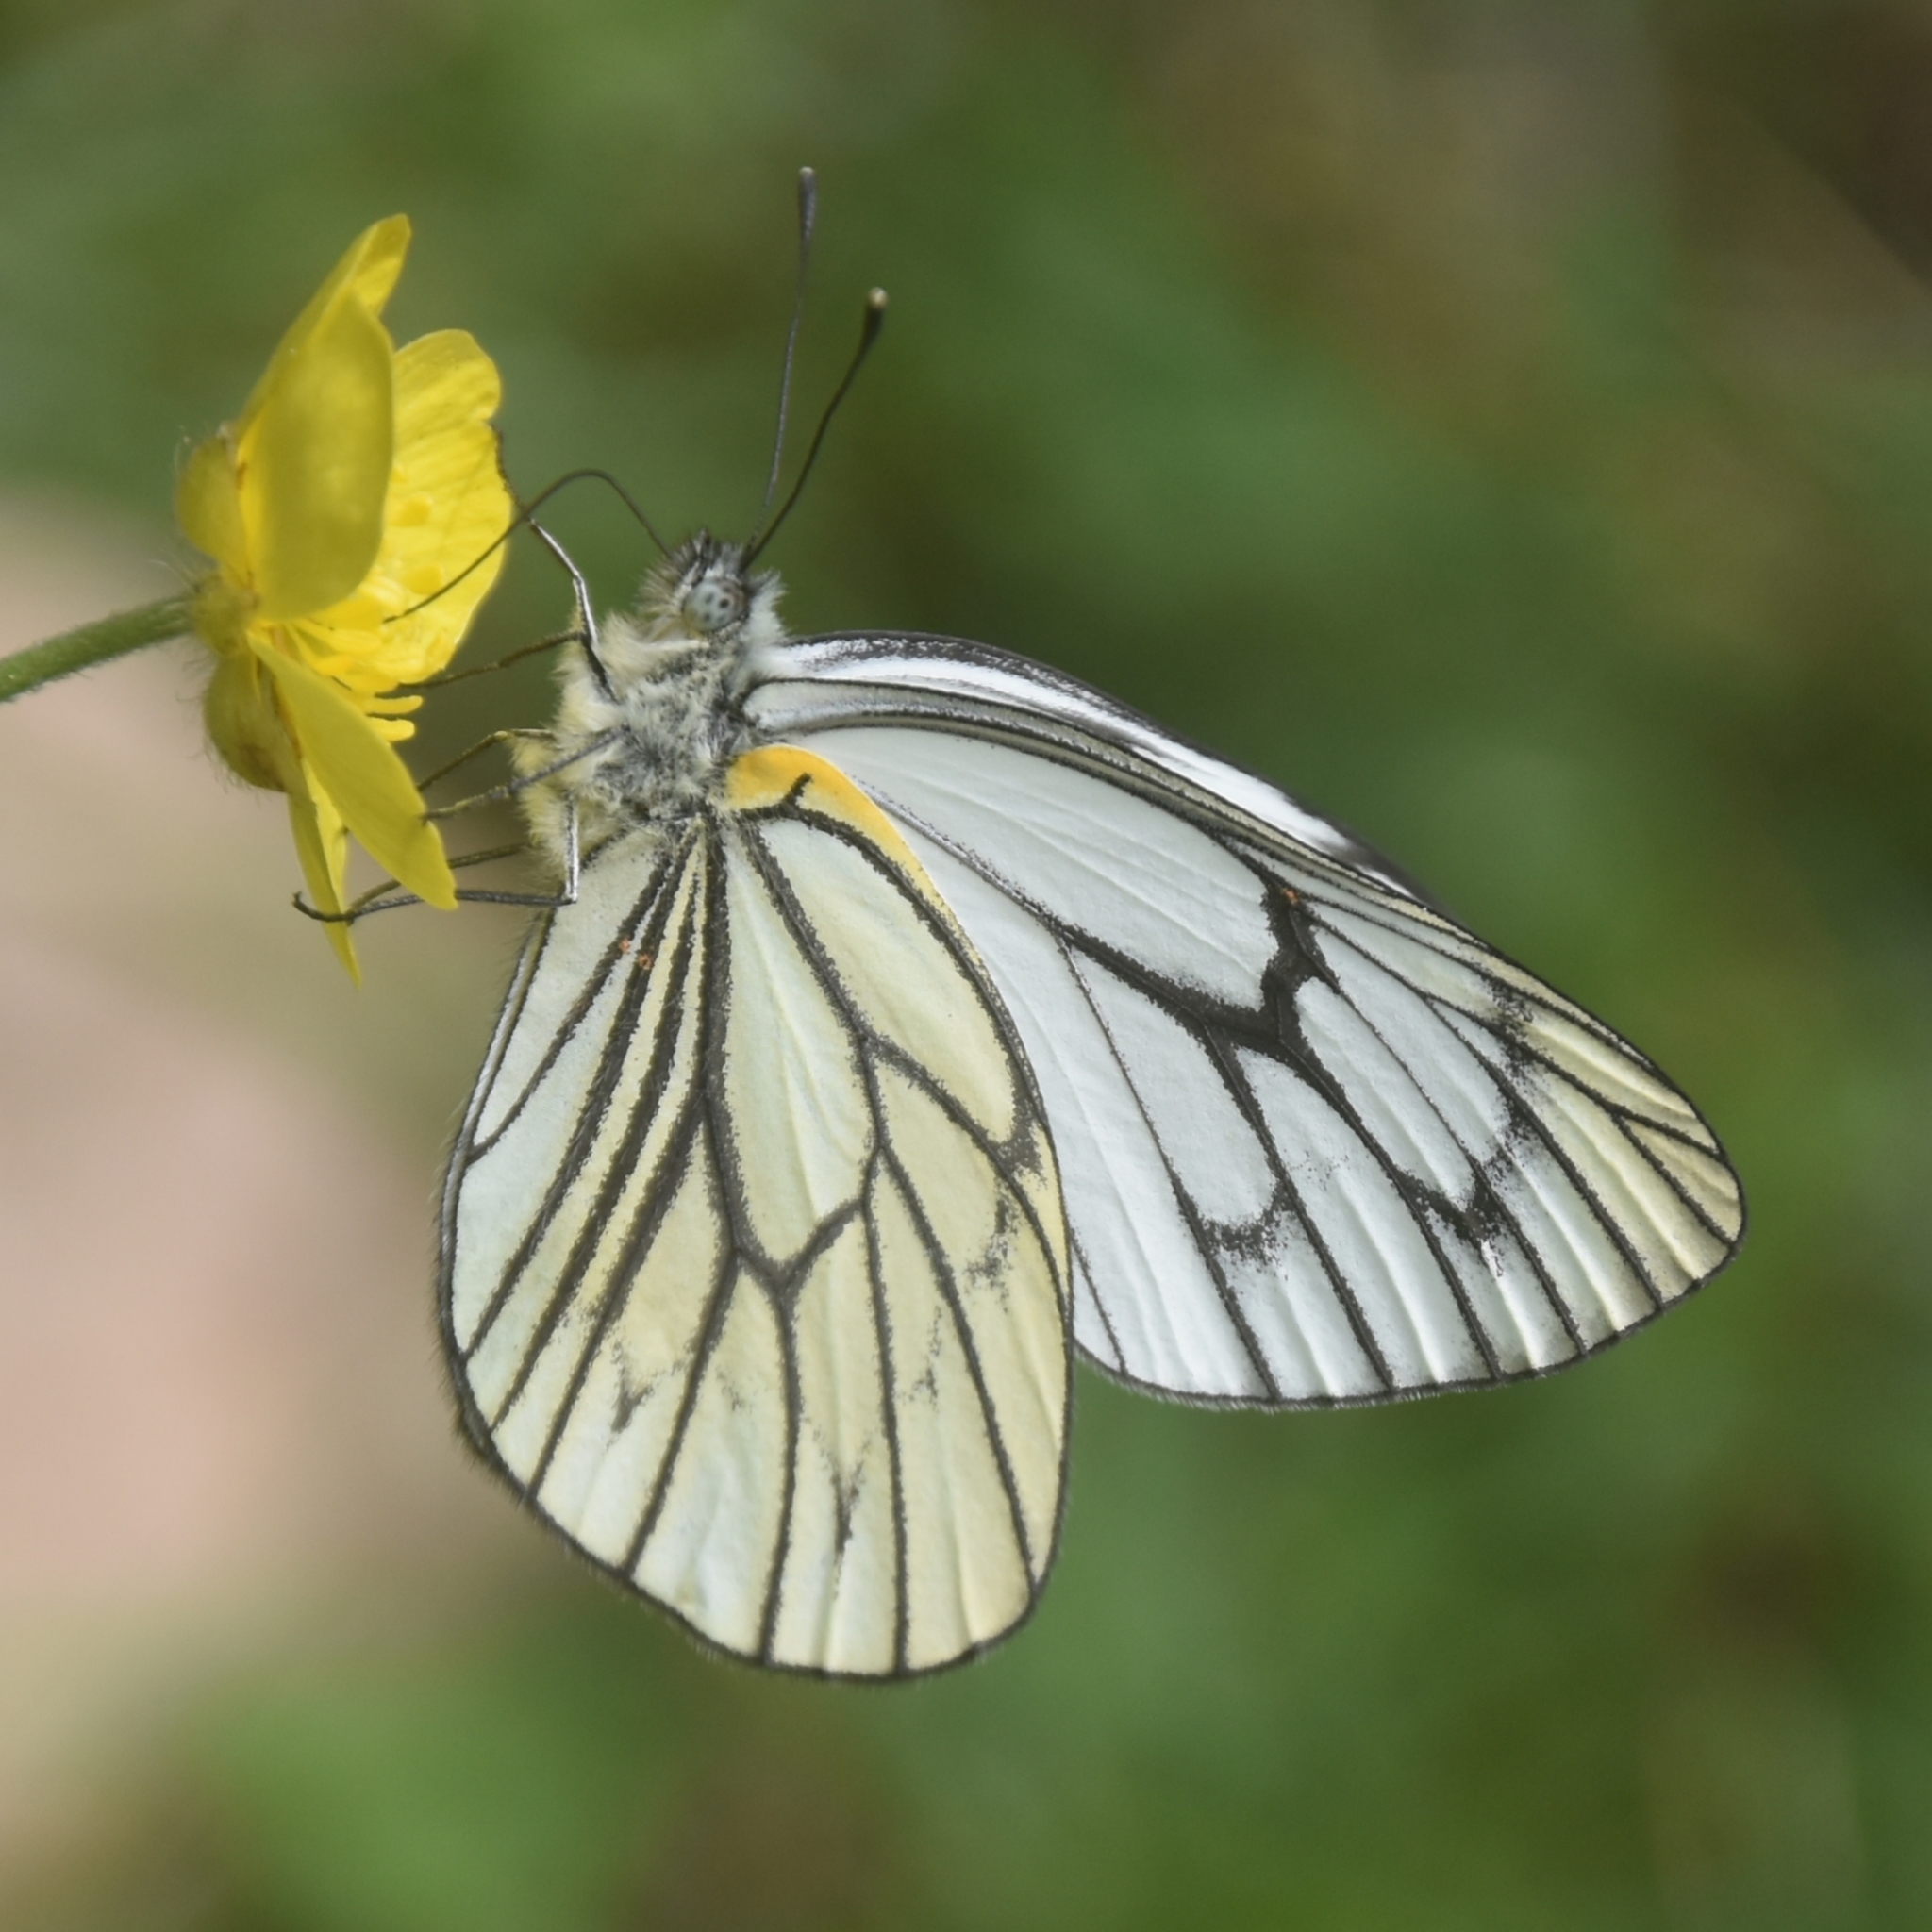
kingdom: Animalia
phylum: Arthropoda
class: Insecta
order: Lepidoptera
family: Pieridae
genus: Aporia
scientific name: Aporia leucodice
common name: Himalayan blackvein
